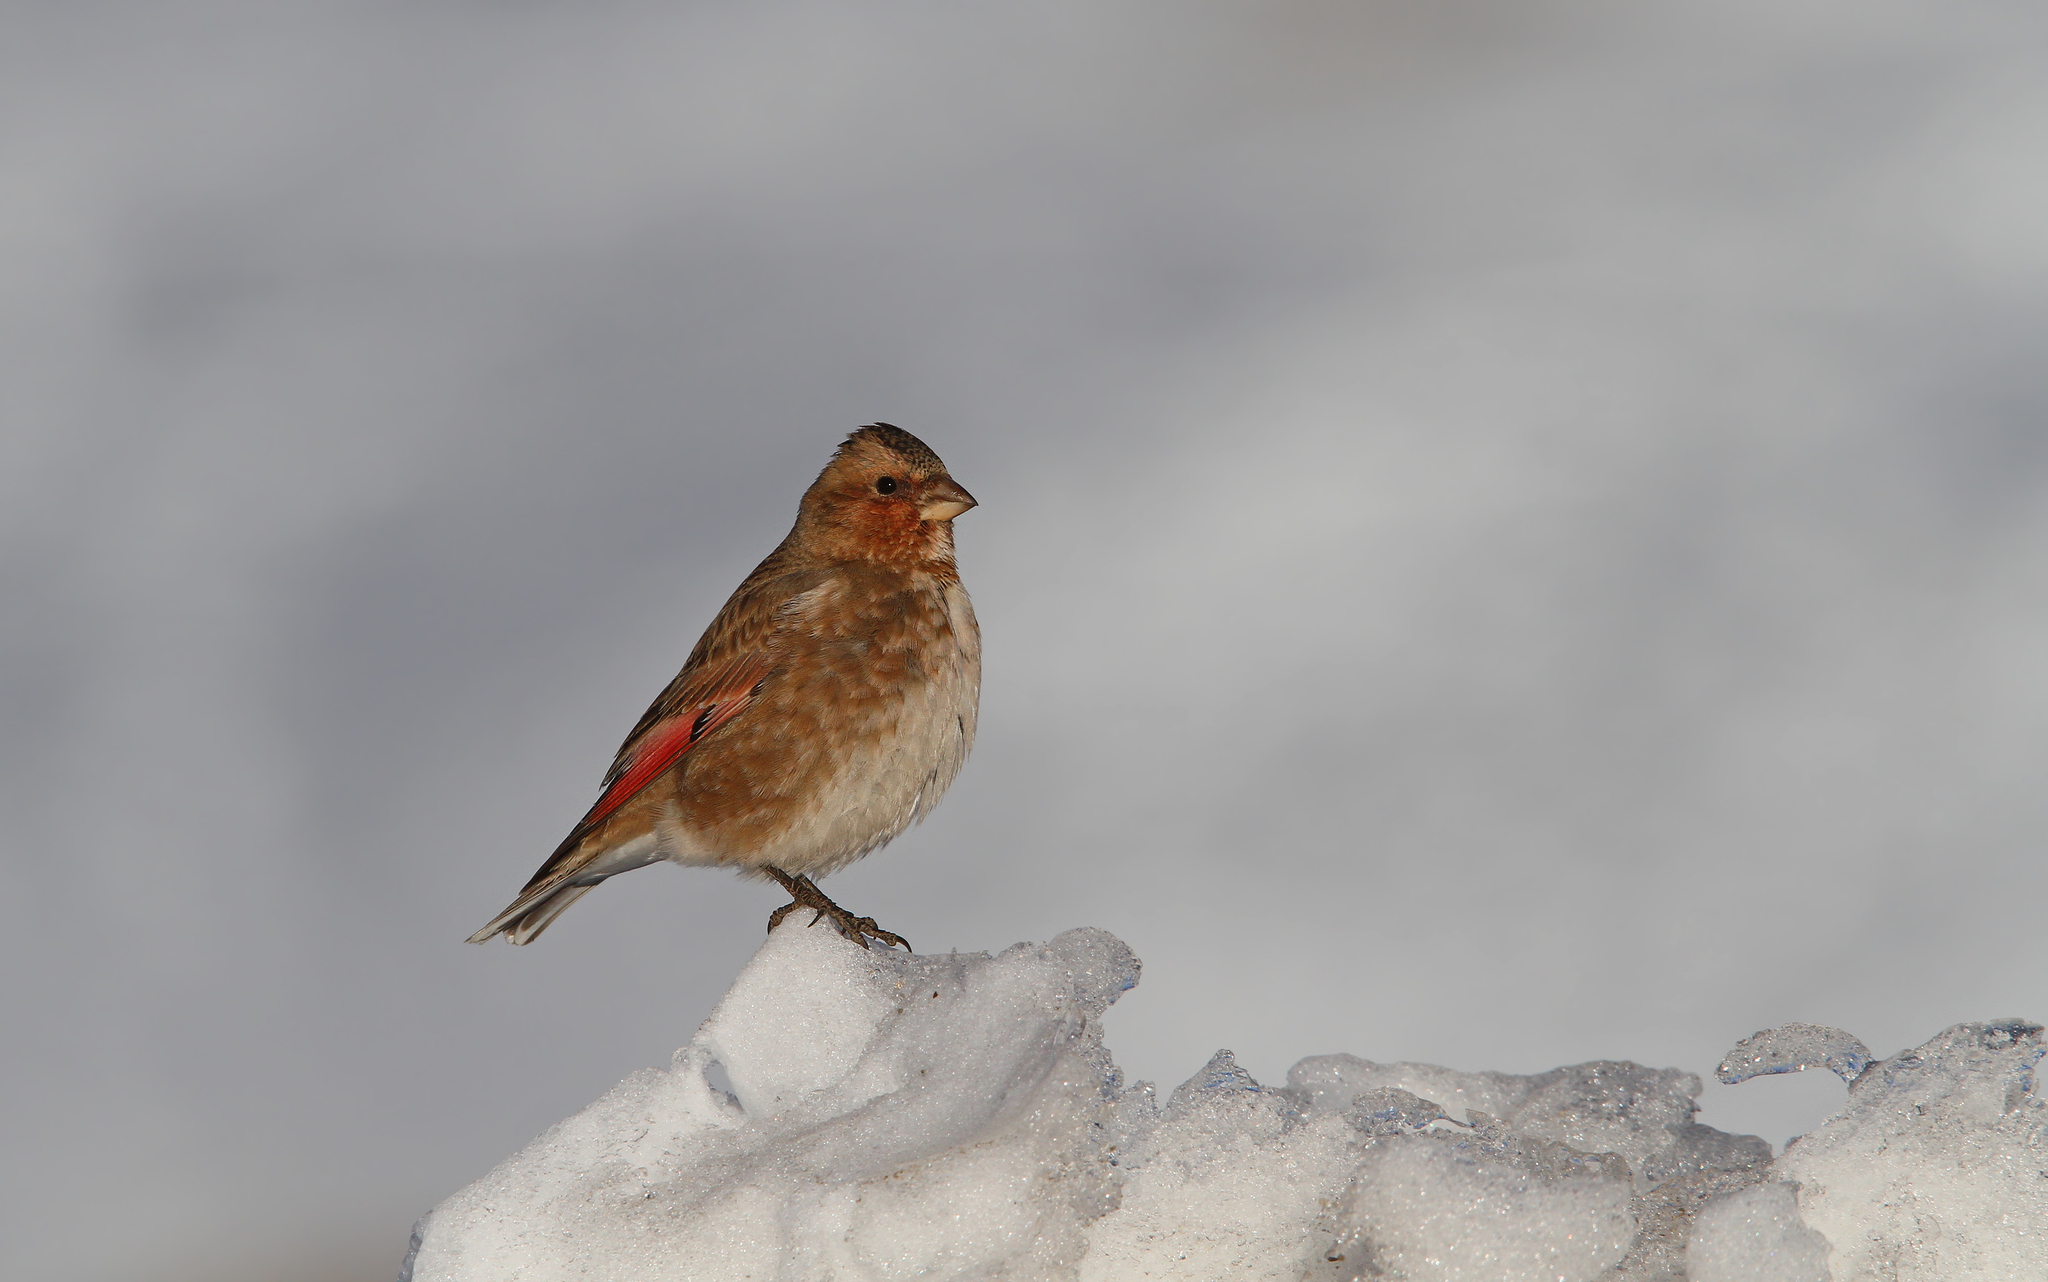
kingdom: Animalia
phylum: Chordata
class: Aves
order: Passeriformes
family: Fringillidae
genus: Rhodopechys
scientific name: Rhodopechys sanguineus
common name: Crimson-winged finch
